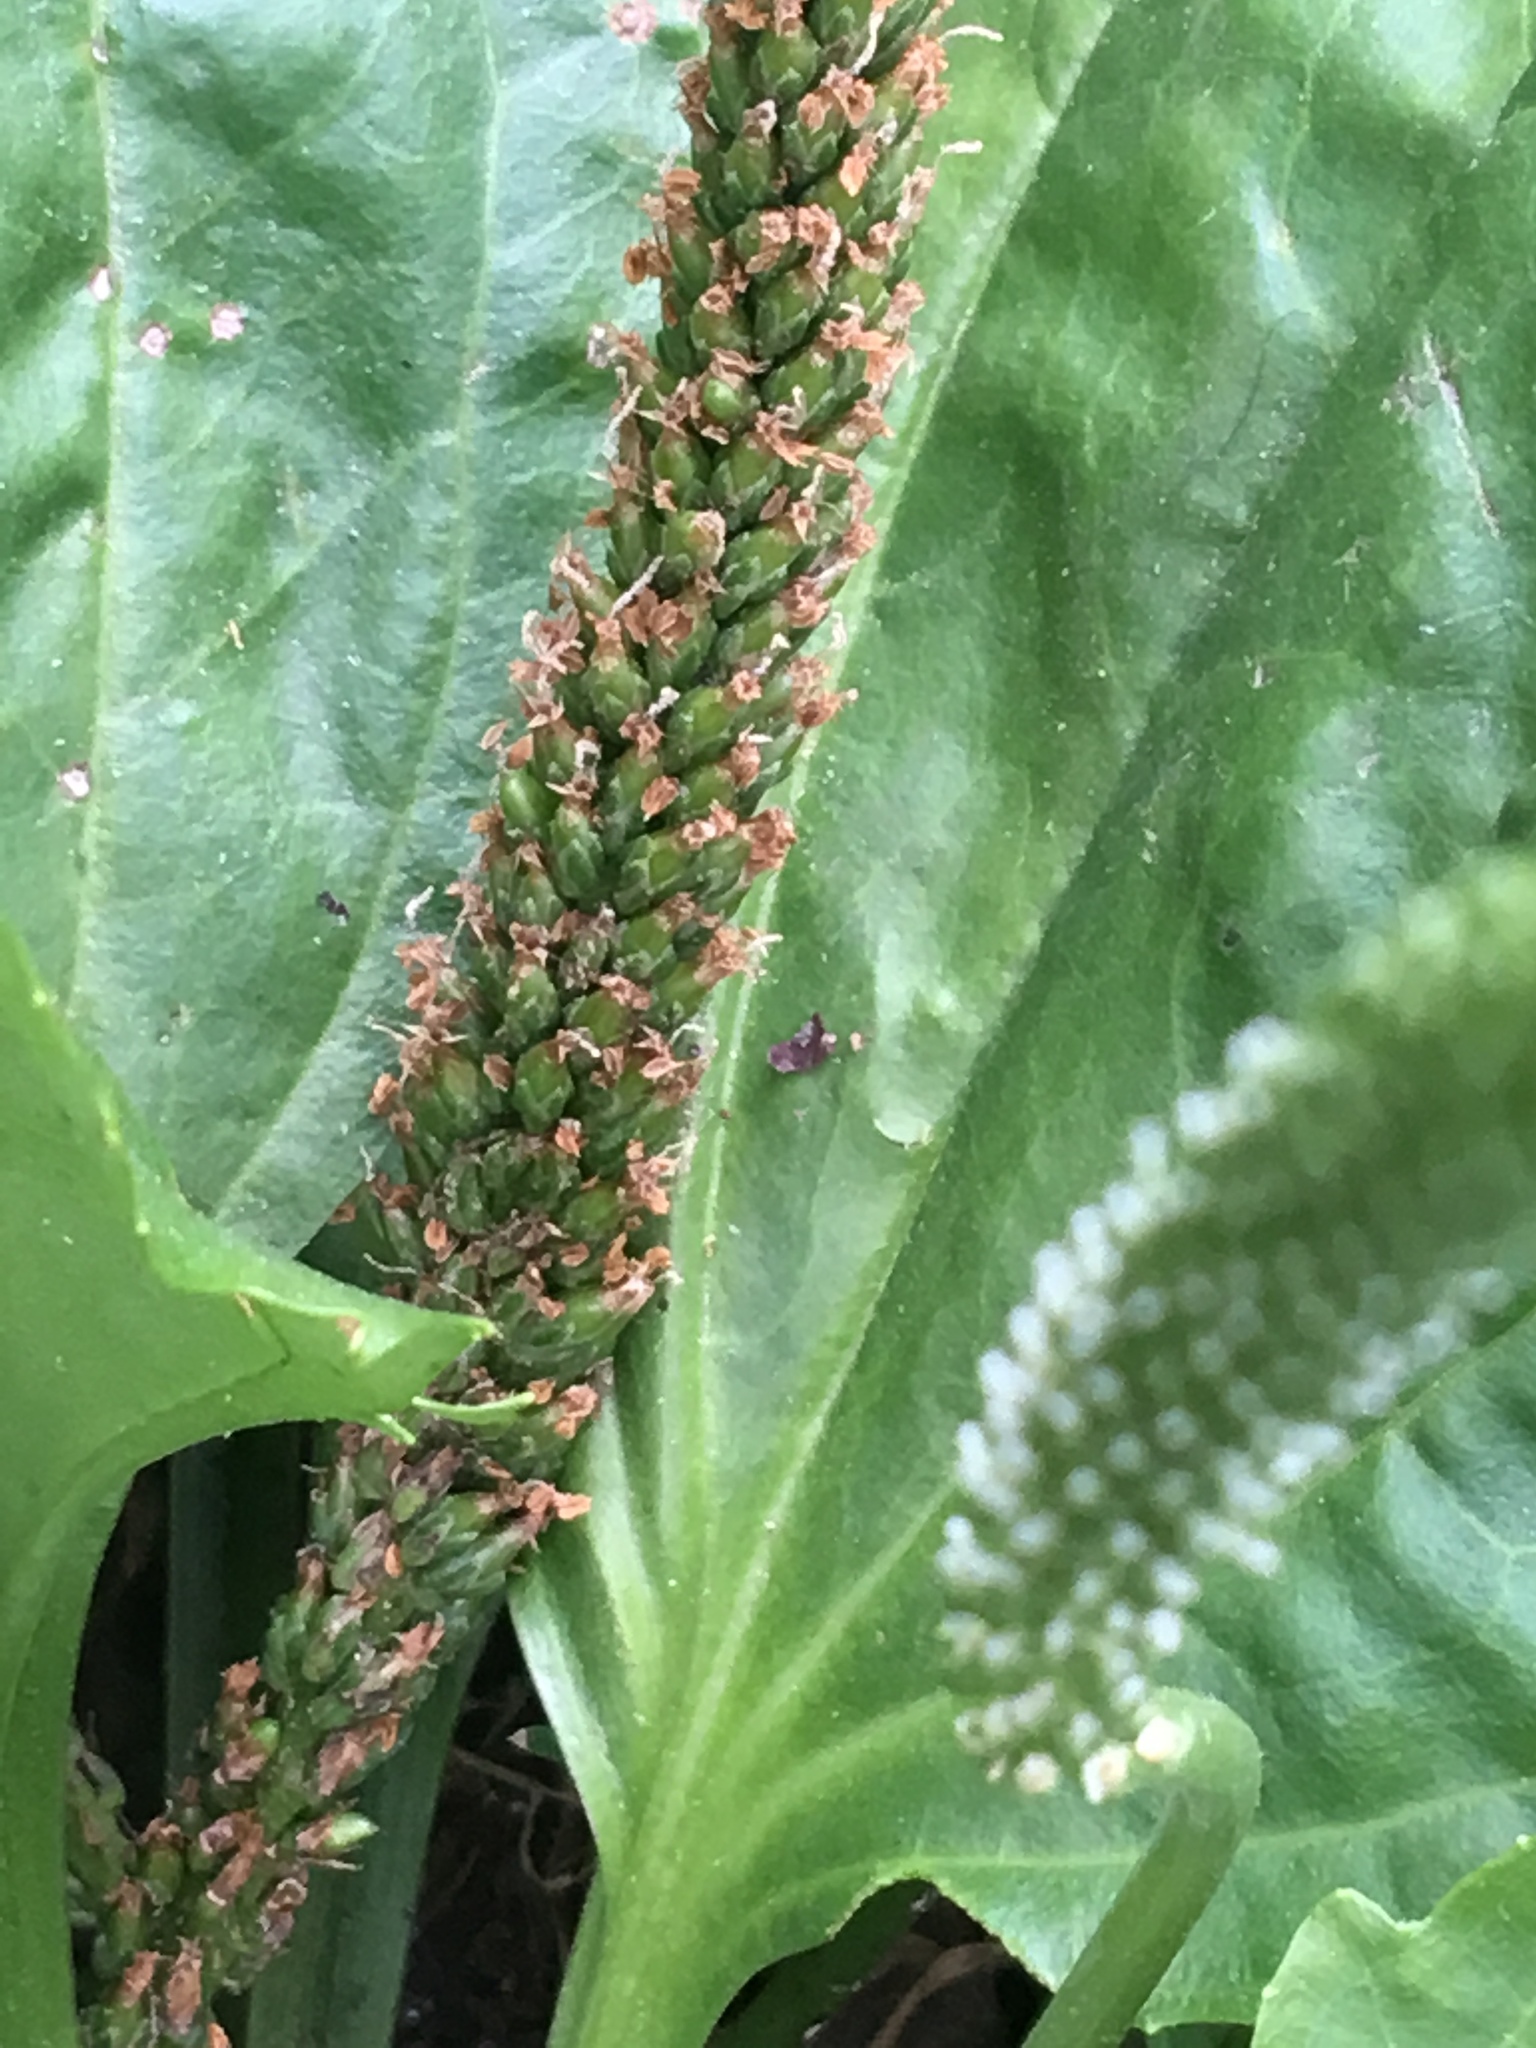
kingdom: Plantae
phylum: Tracheophyta
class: Magnoliopsida
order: Lamiales
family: Plantaginaceae
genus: Plantago
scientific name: Plantago rugelii
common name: American plantain
